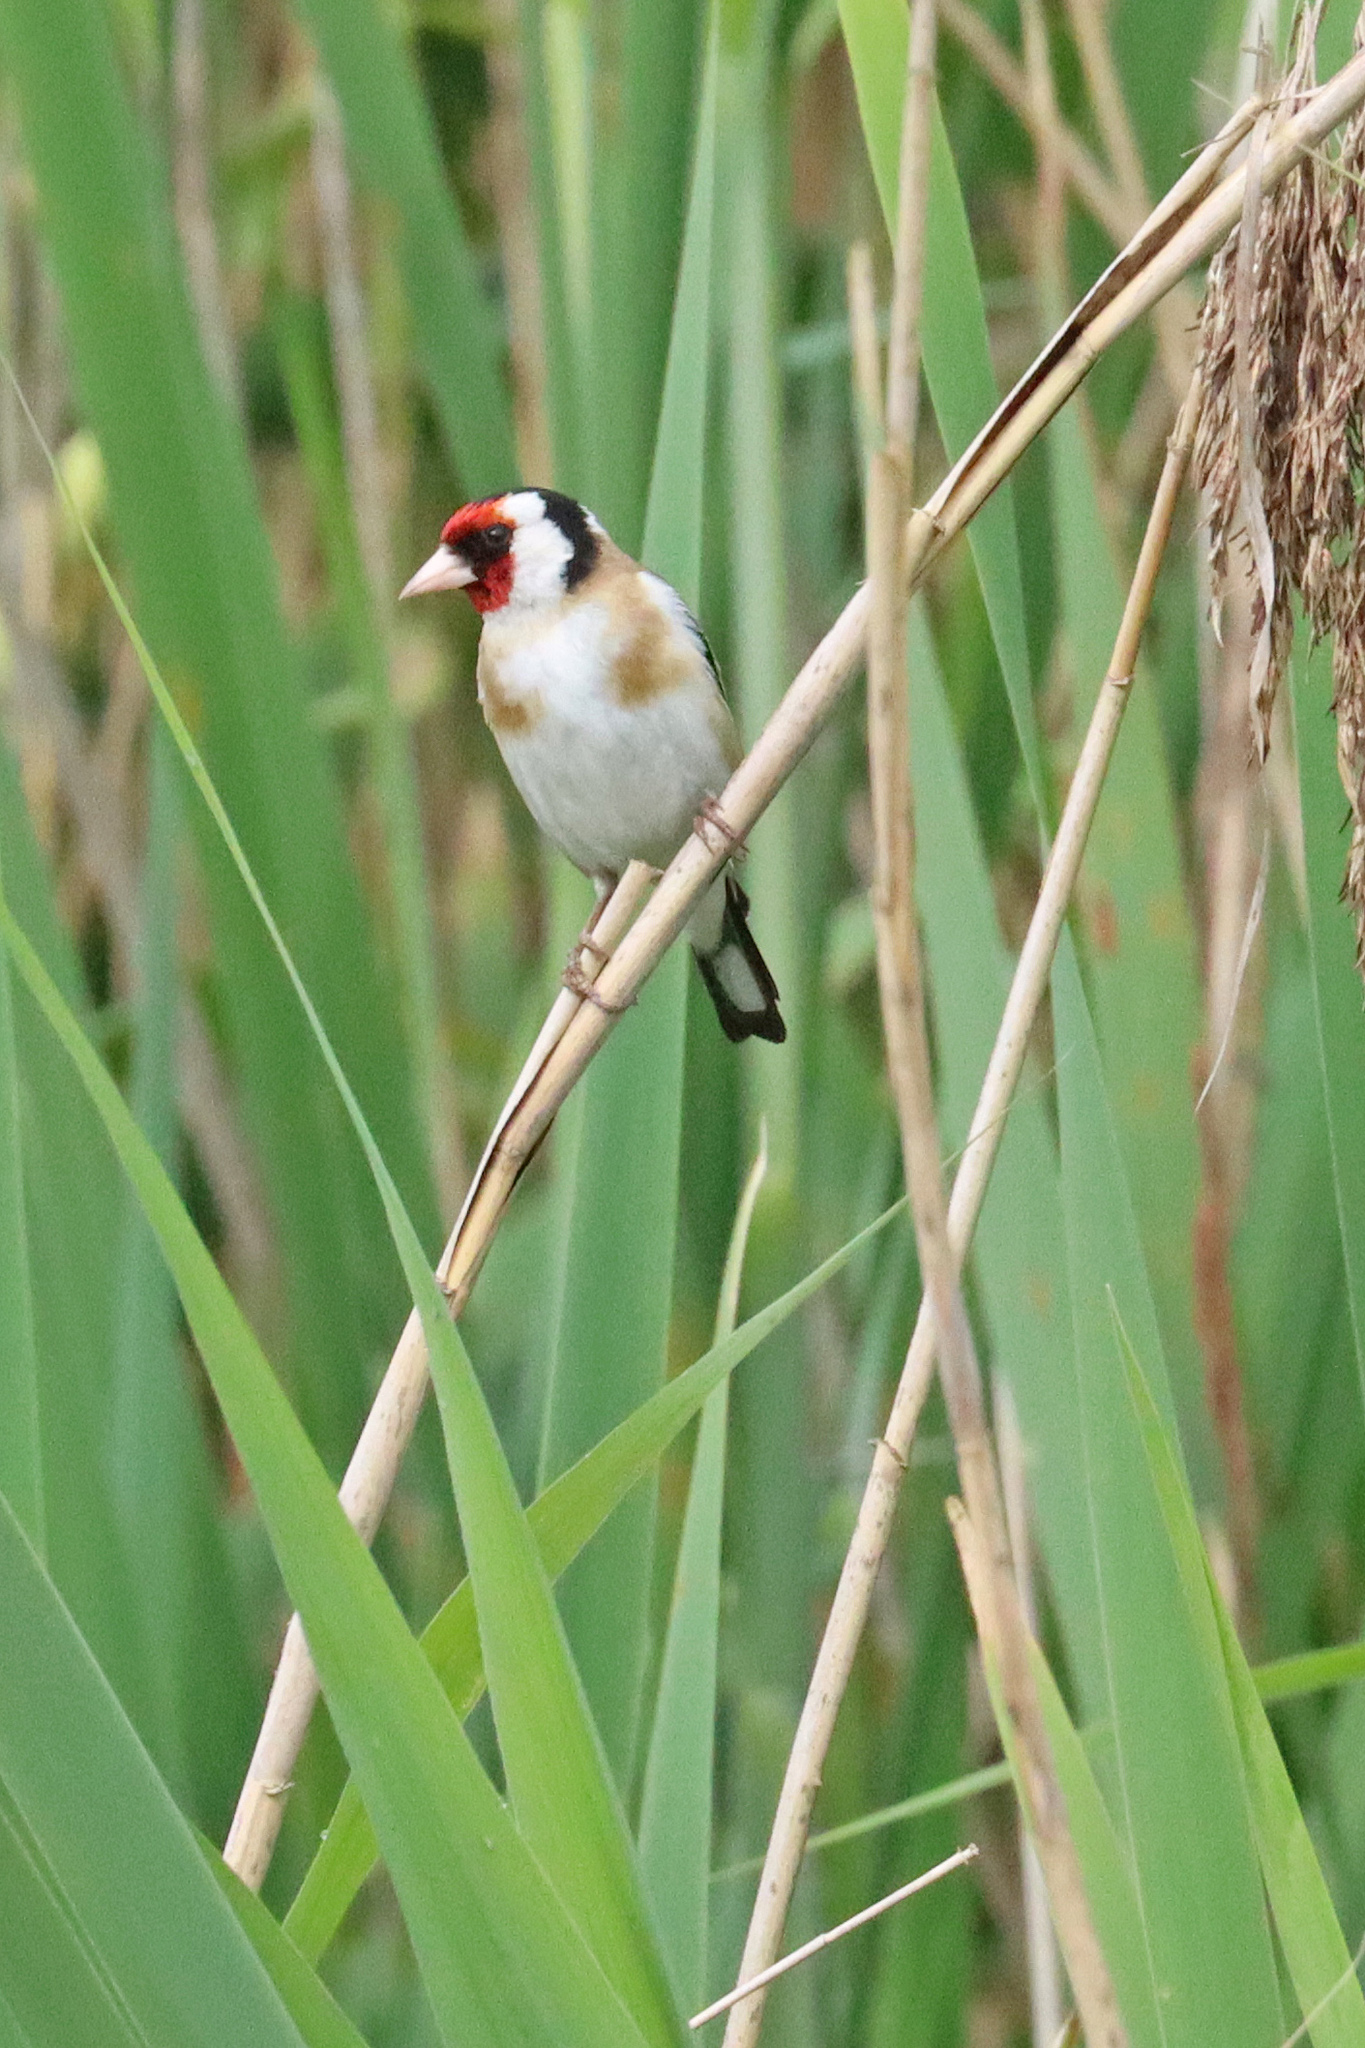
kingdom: Animalia
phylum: Chordata
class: Aves
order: Passeriformes
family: Fringillidae
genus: Carduelis
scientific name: Carduelis carduelis
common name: European goldfinch
